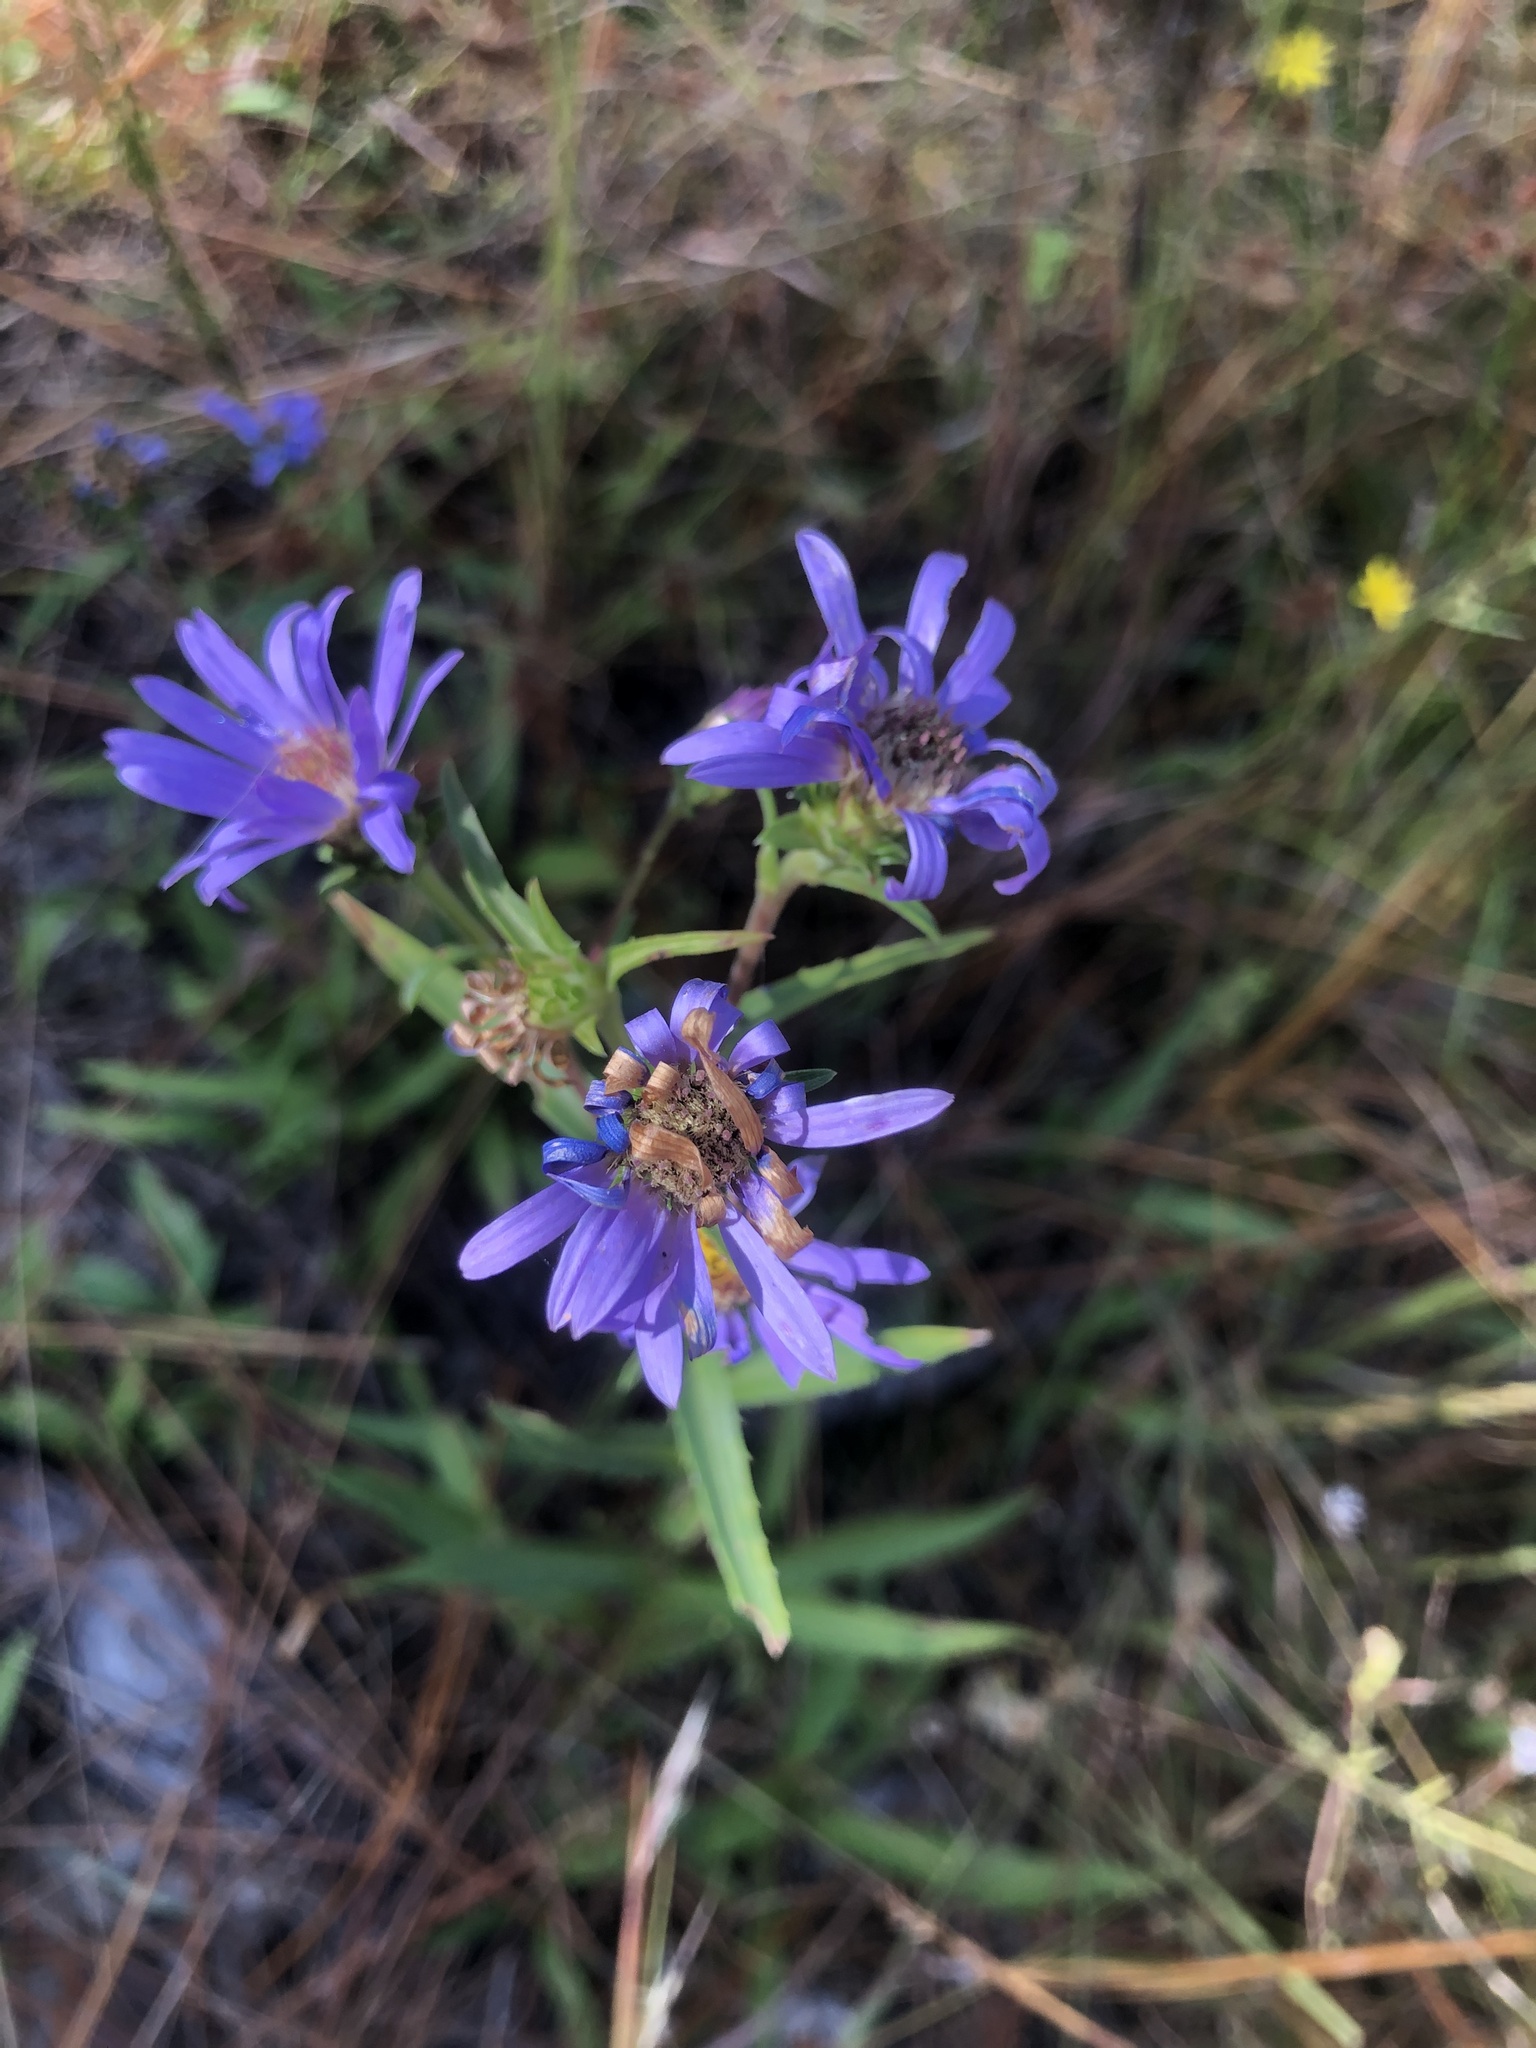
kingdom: Plantae
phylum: Tracheophyta
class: Magnoliopsida
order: Asterales
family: Asteraceae
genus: Eurybia
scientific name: Eurybia paludosa
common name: Southern swamp aster
